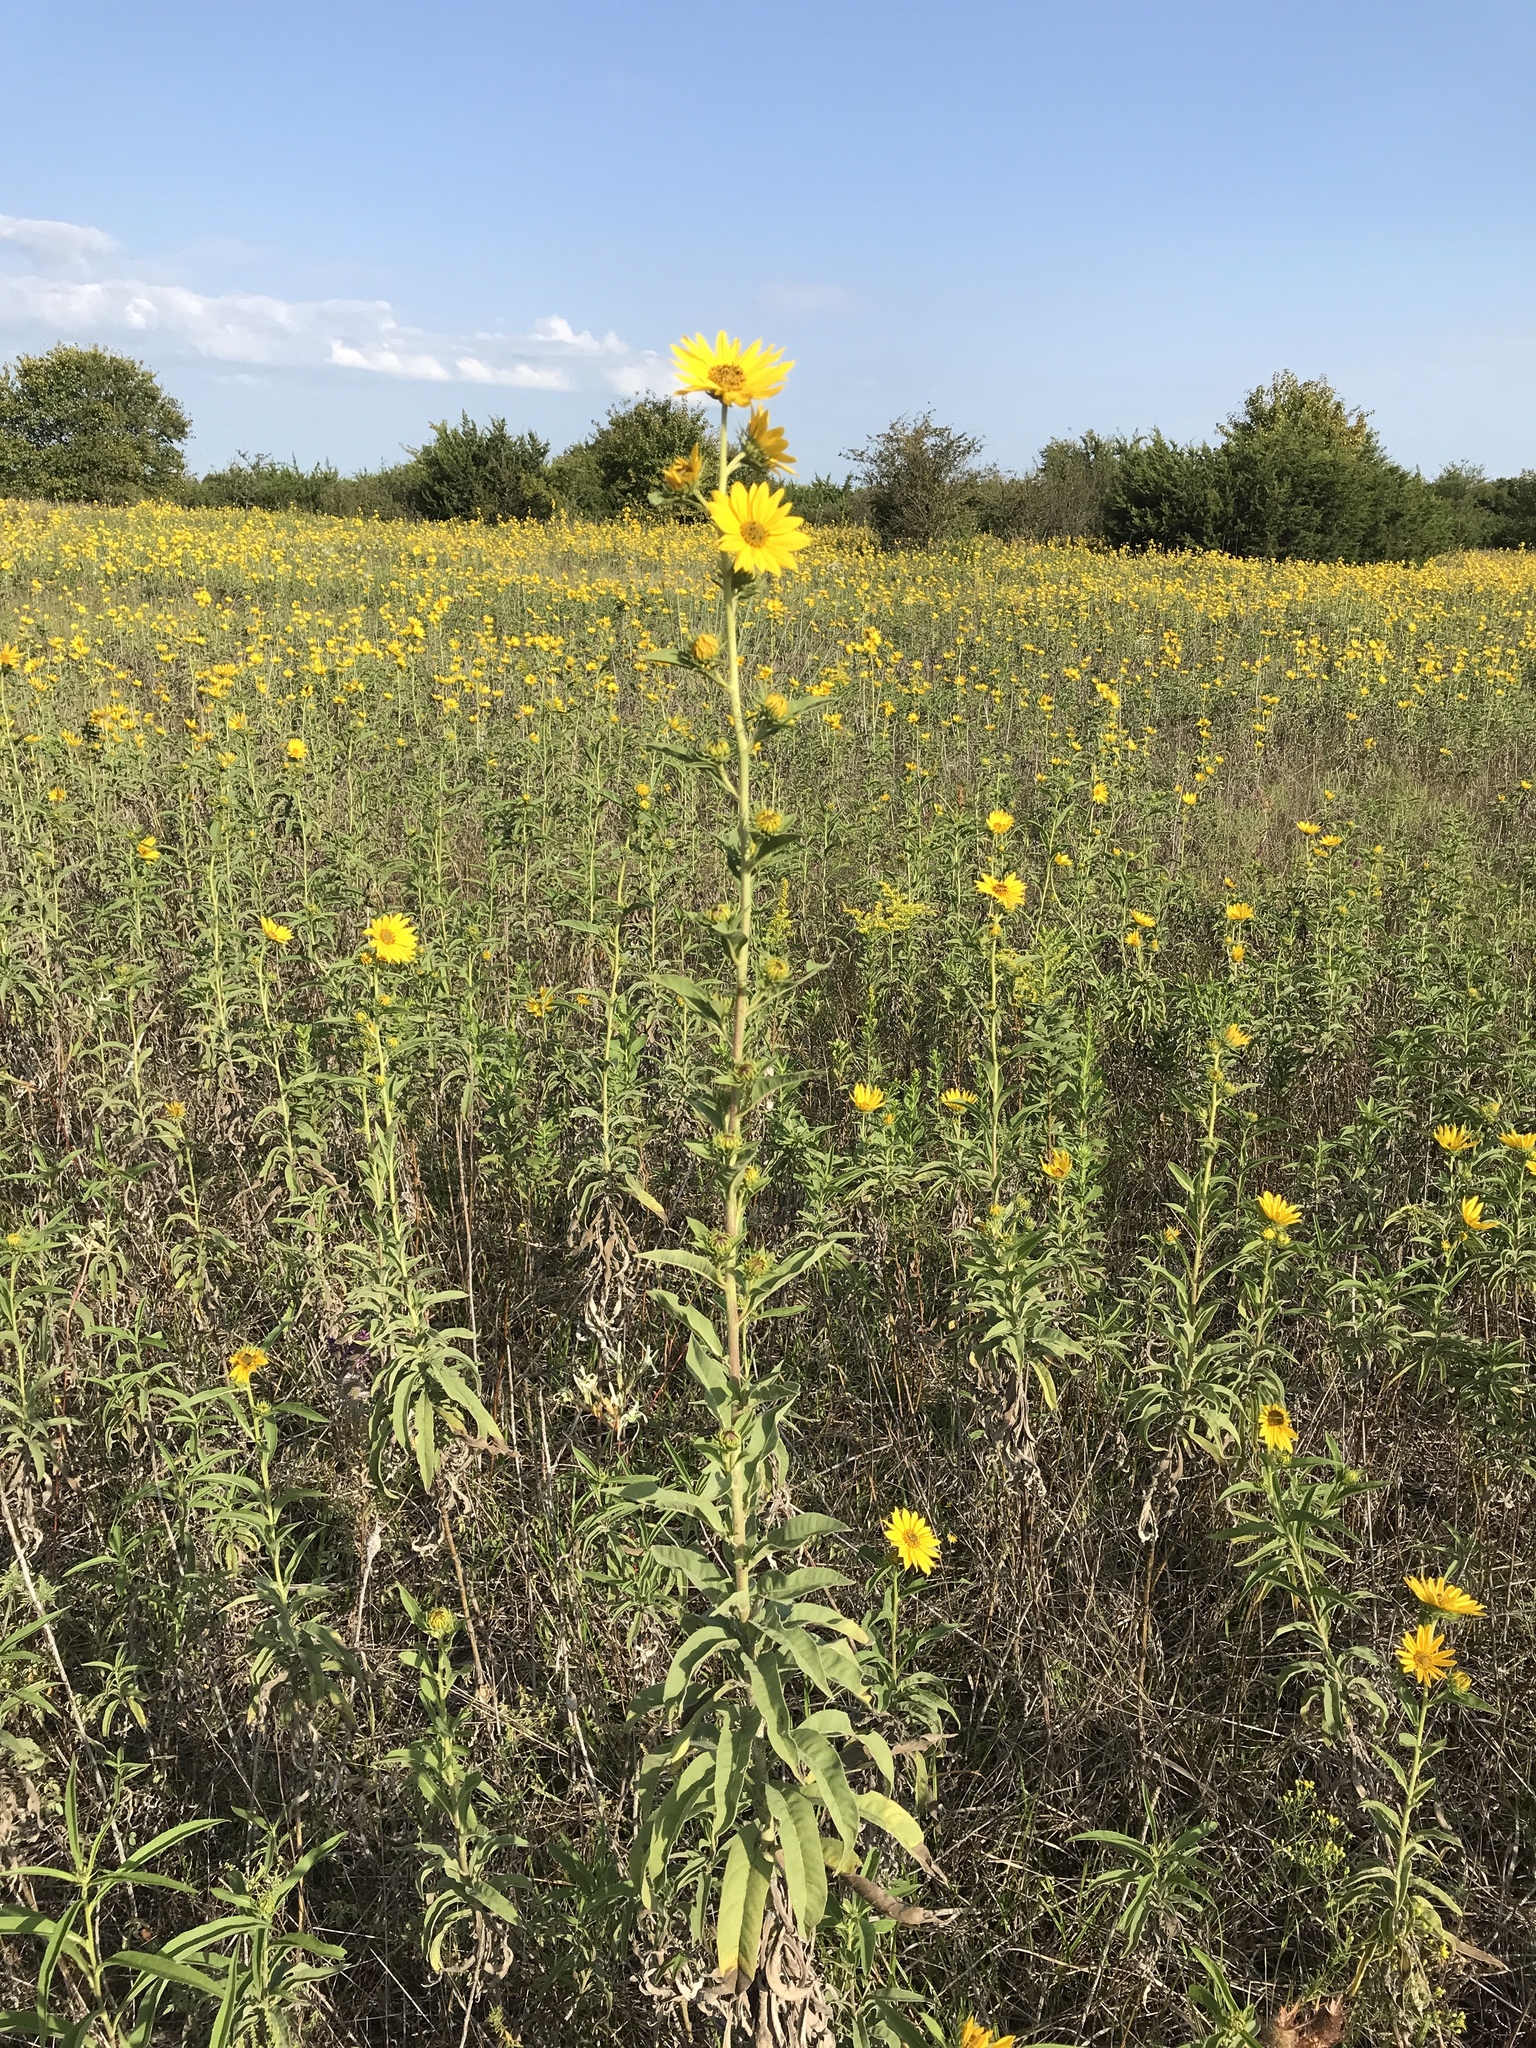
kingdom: Plantae
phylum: Tracheophyta
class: Magnoliopsida
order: Asterales
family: Asteraceae
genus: Helianthus
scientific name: Helianthus maximiliani
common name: Maximilian's sunflower
